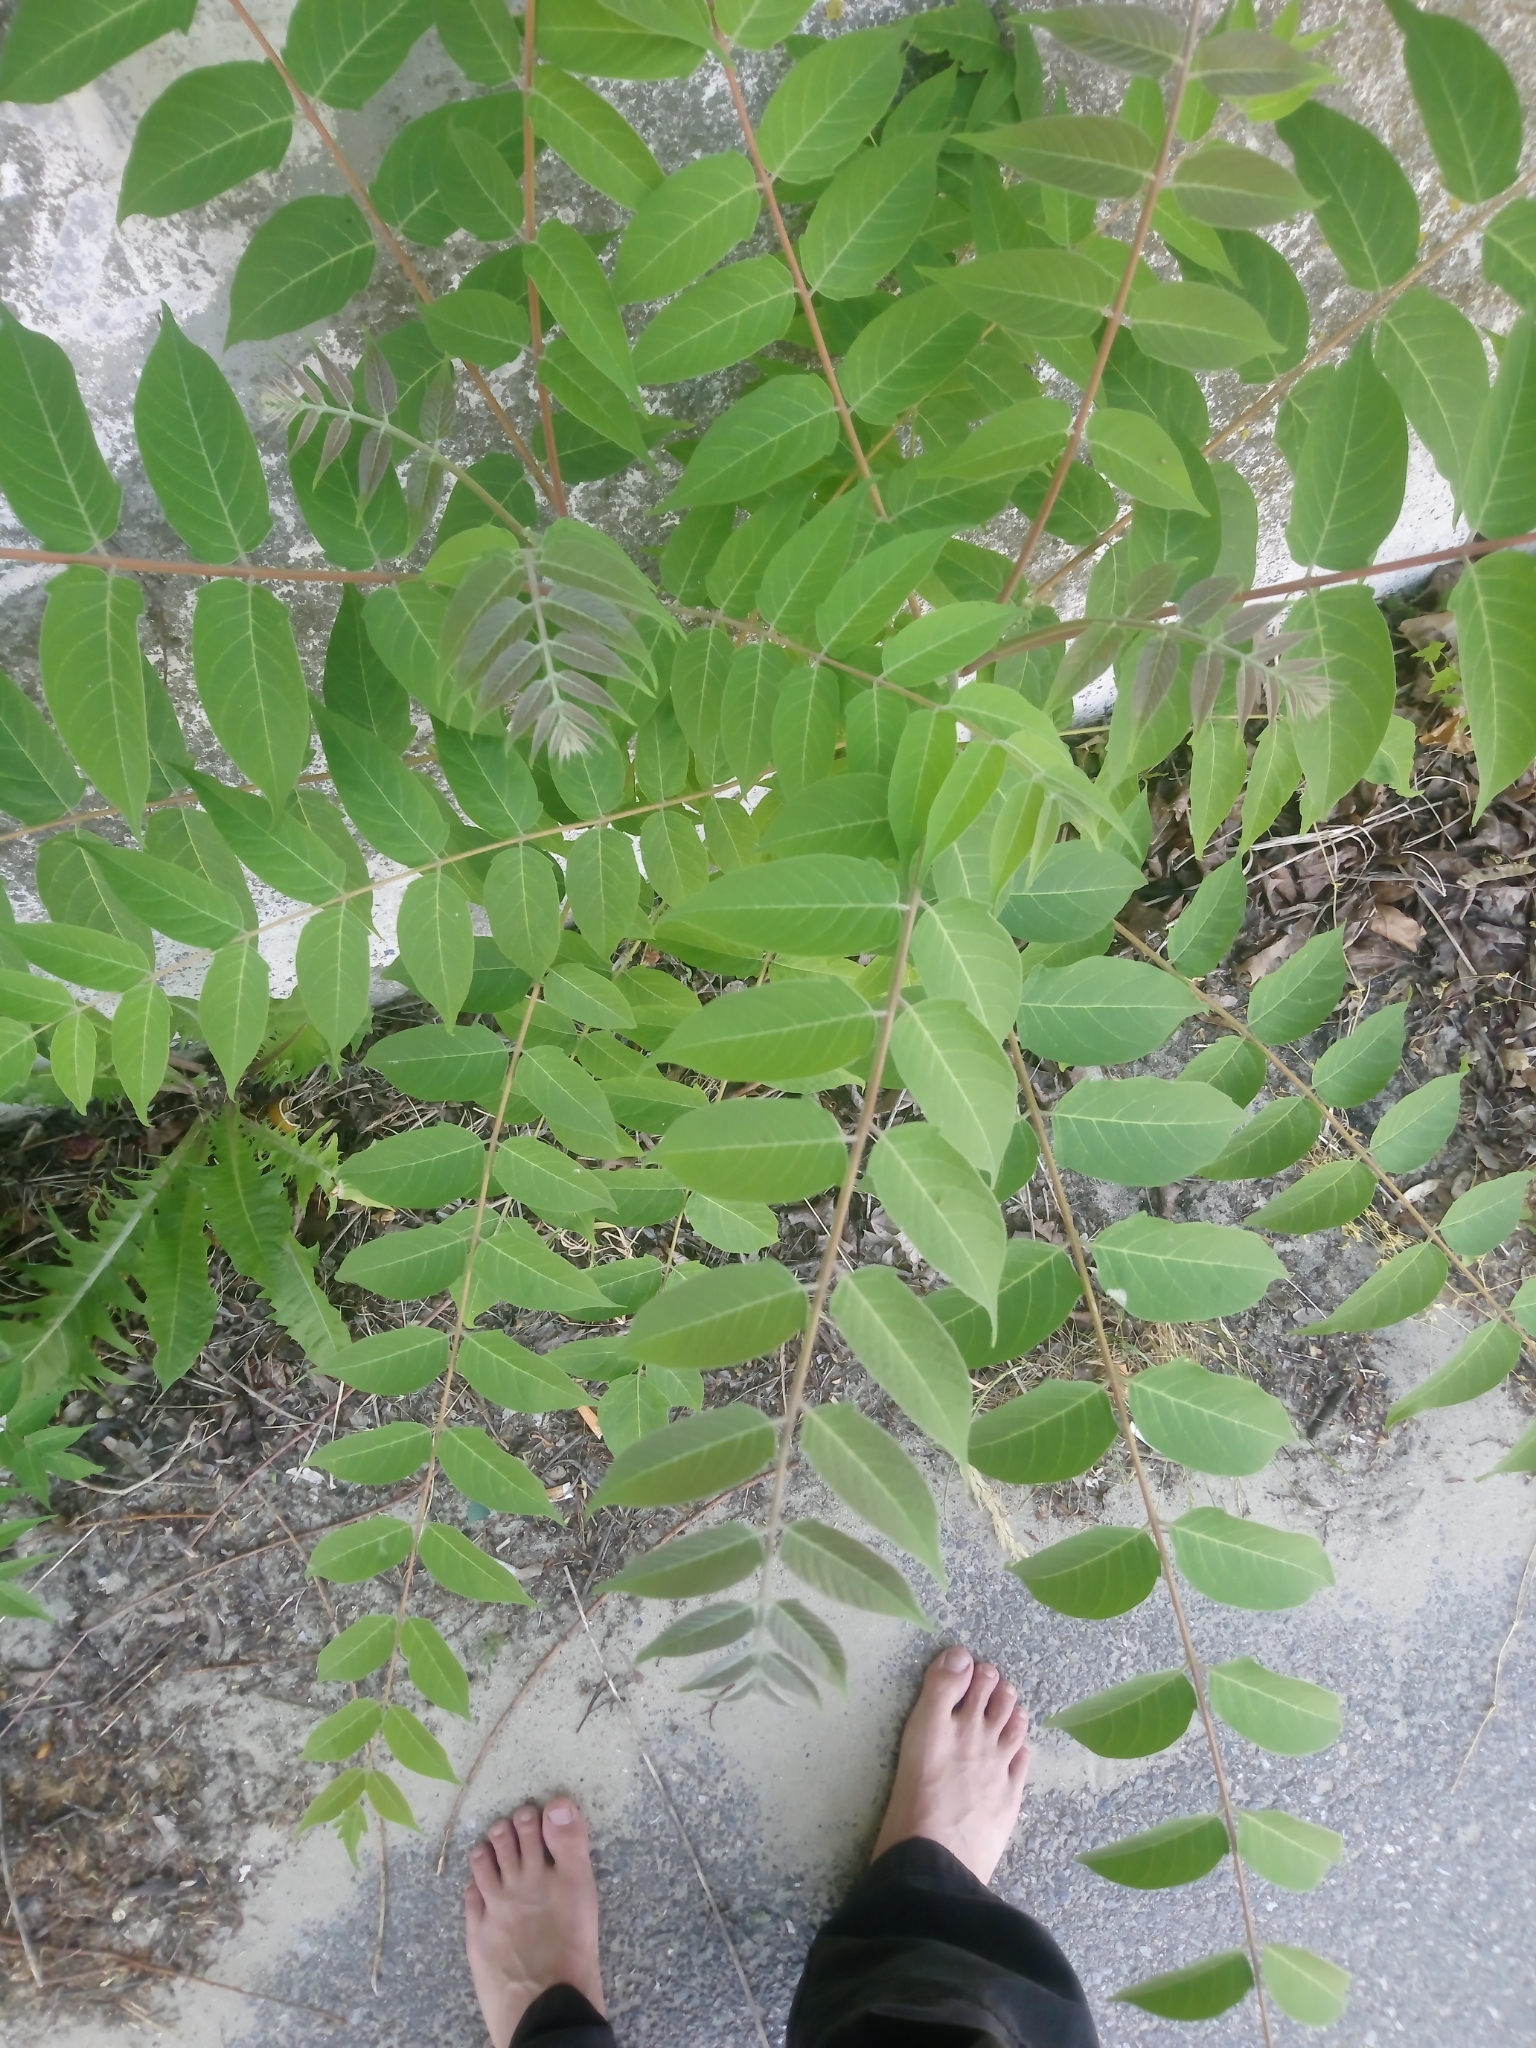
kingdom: Plantae
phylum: Tracheophyta
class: Magnoliopsida
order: Sapindales
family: Simaroubaceae
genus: Ailanthus
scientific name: Ailanthus altissima
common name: Tree-of-heaven
